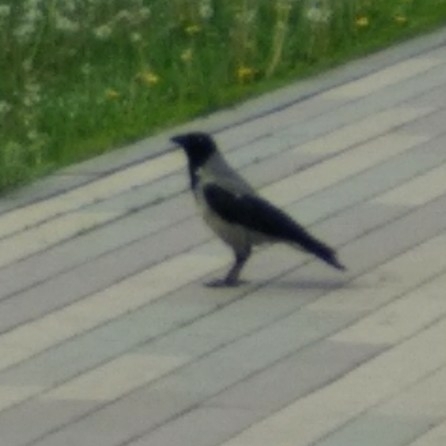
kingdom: Animalia
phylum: Chordata
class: Aves
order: Passeriformes
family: Corvidae
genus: Corvus
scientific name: Corvus cornix
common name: Hooded crow
